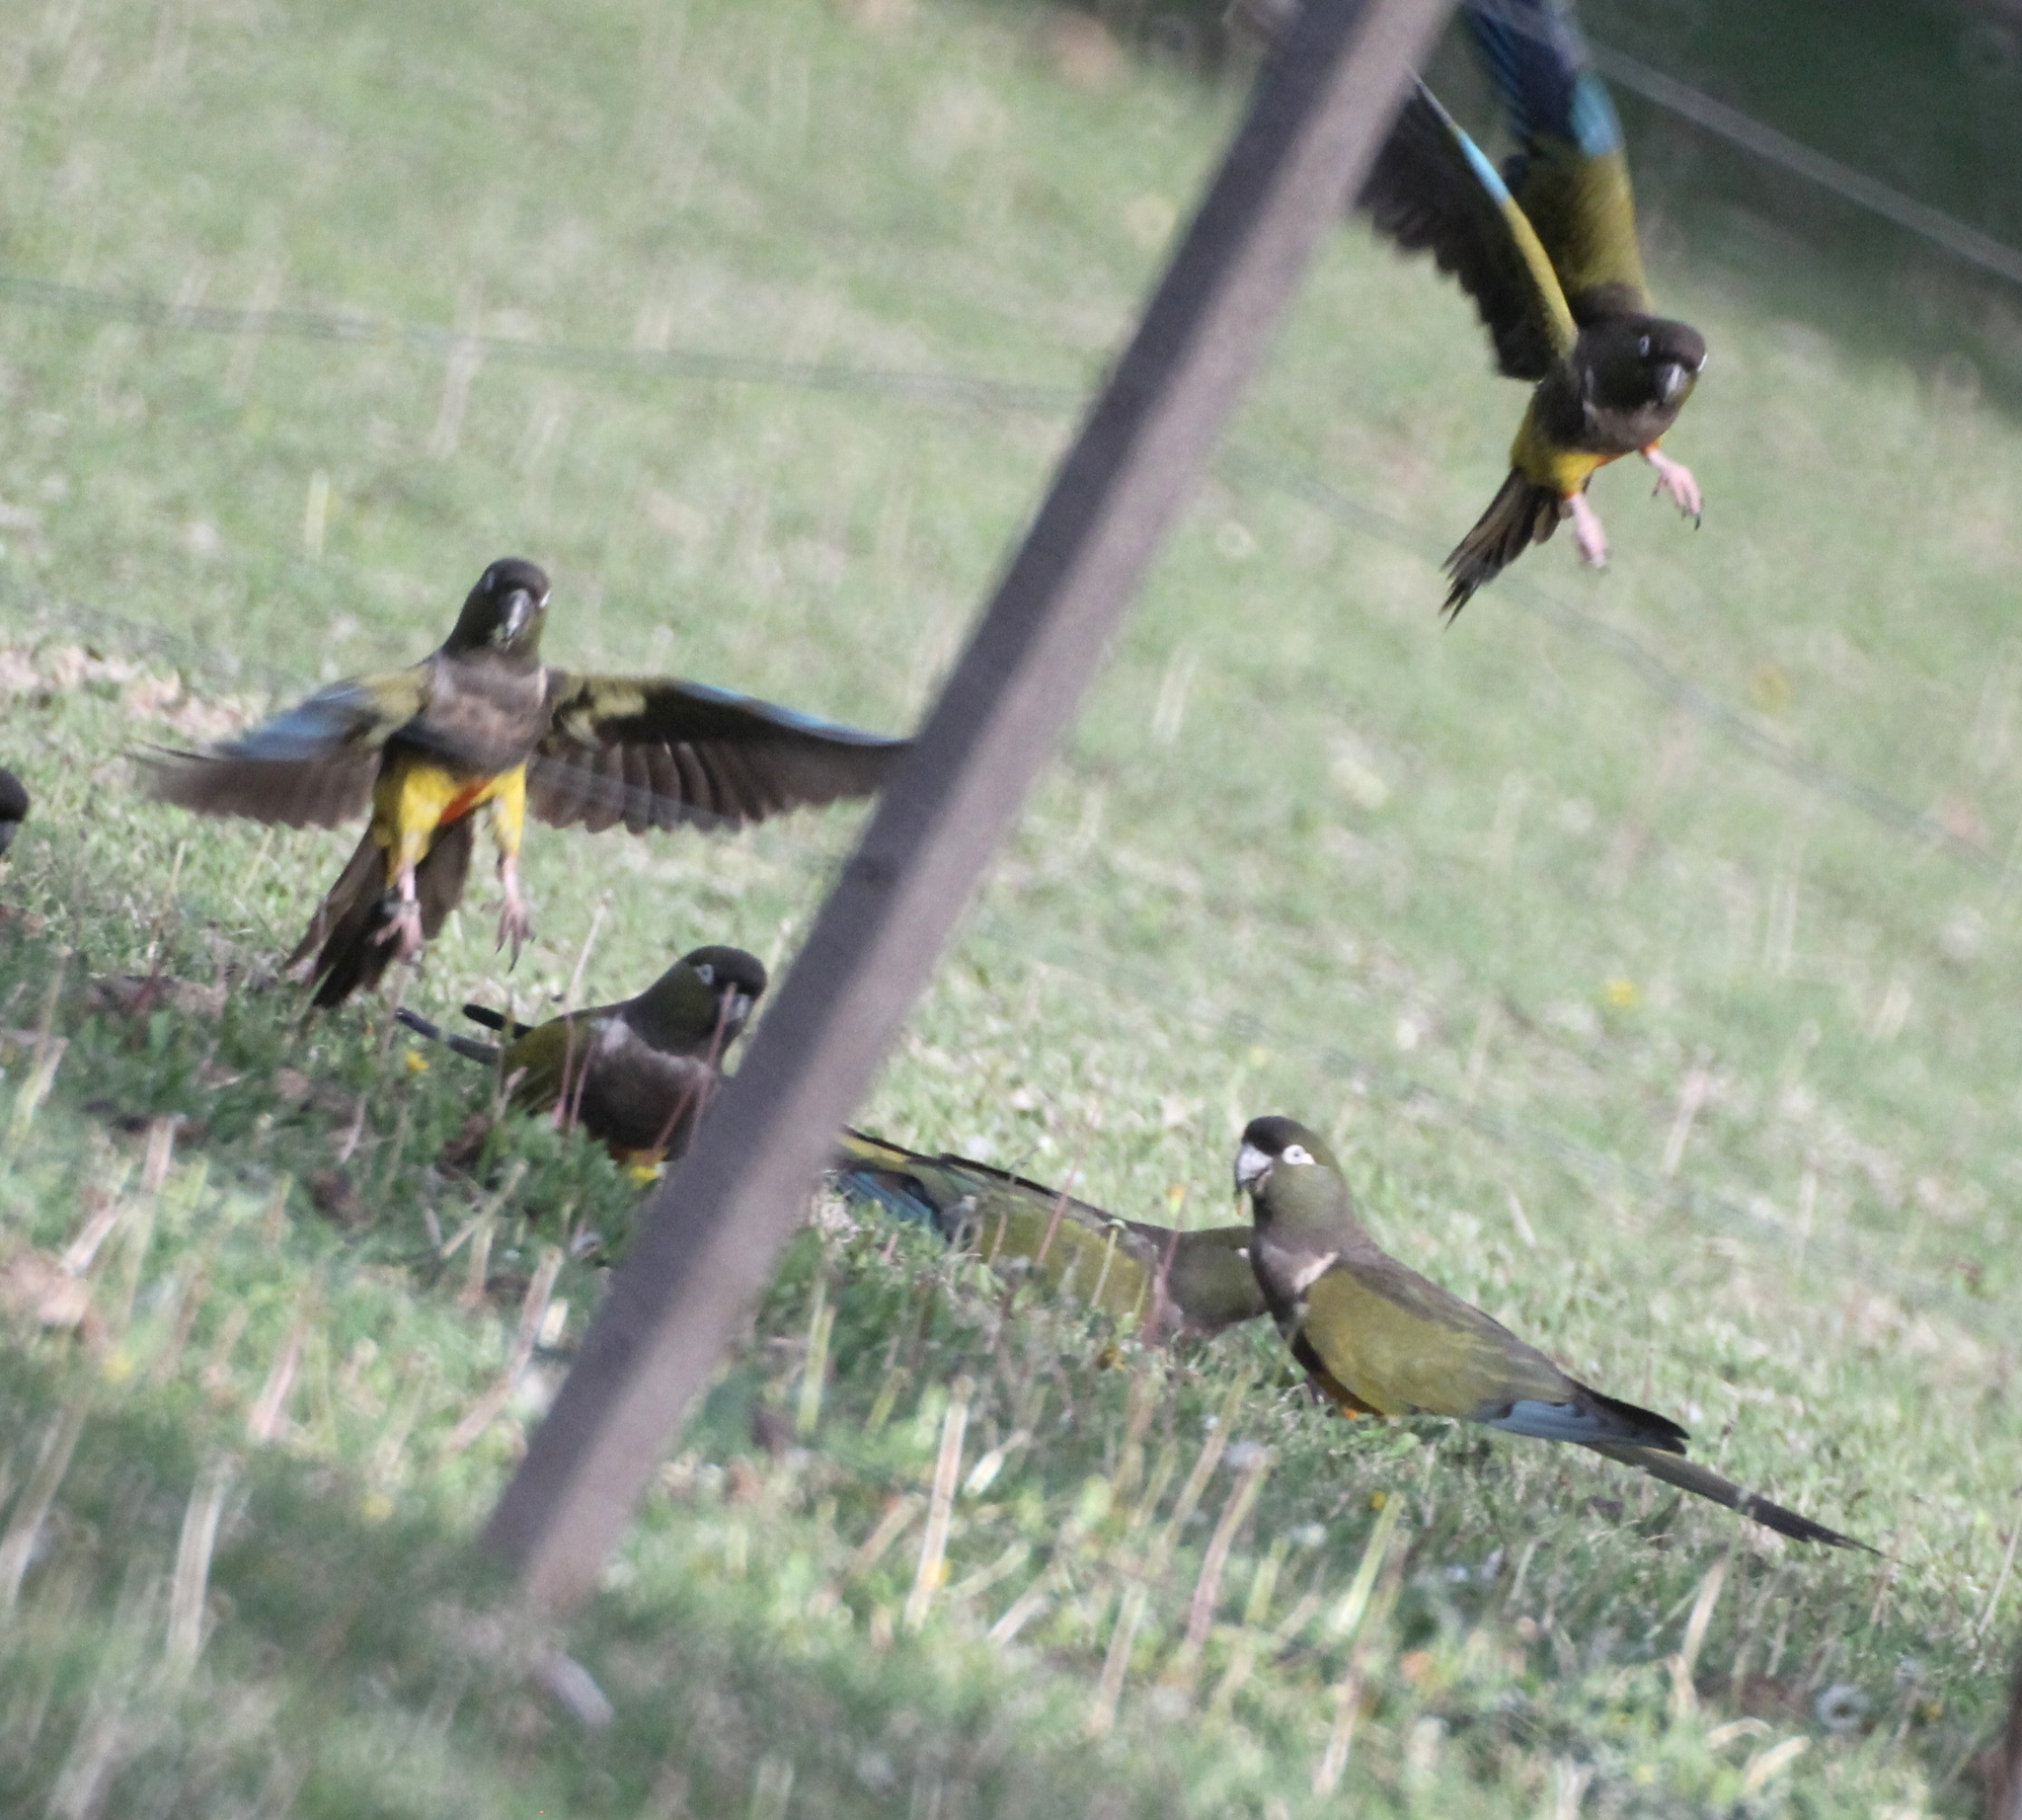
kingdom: Animalia
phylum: Chordata
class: Aves
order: Psittaciformes
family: Psittacidae
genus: Cyanoliseus
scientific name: Cyanoliseus patagonus
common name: Burrowing parrot
